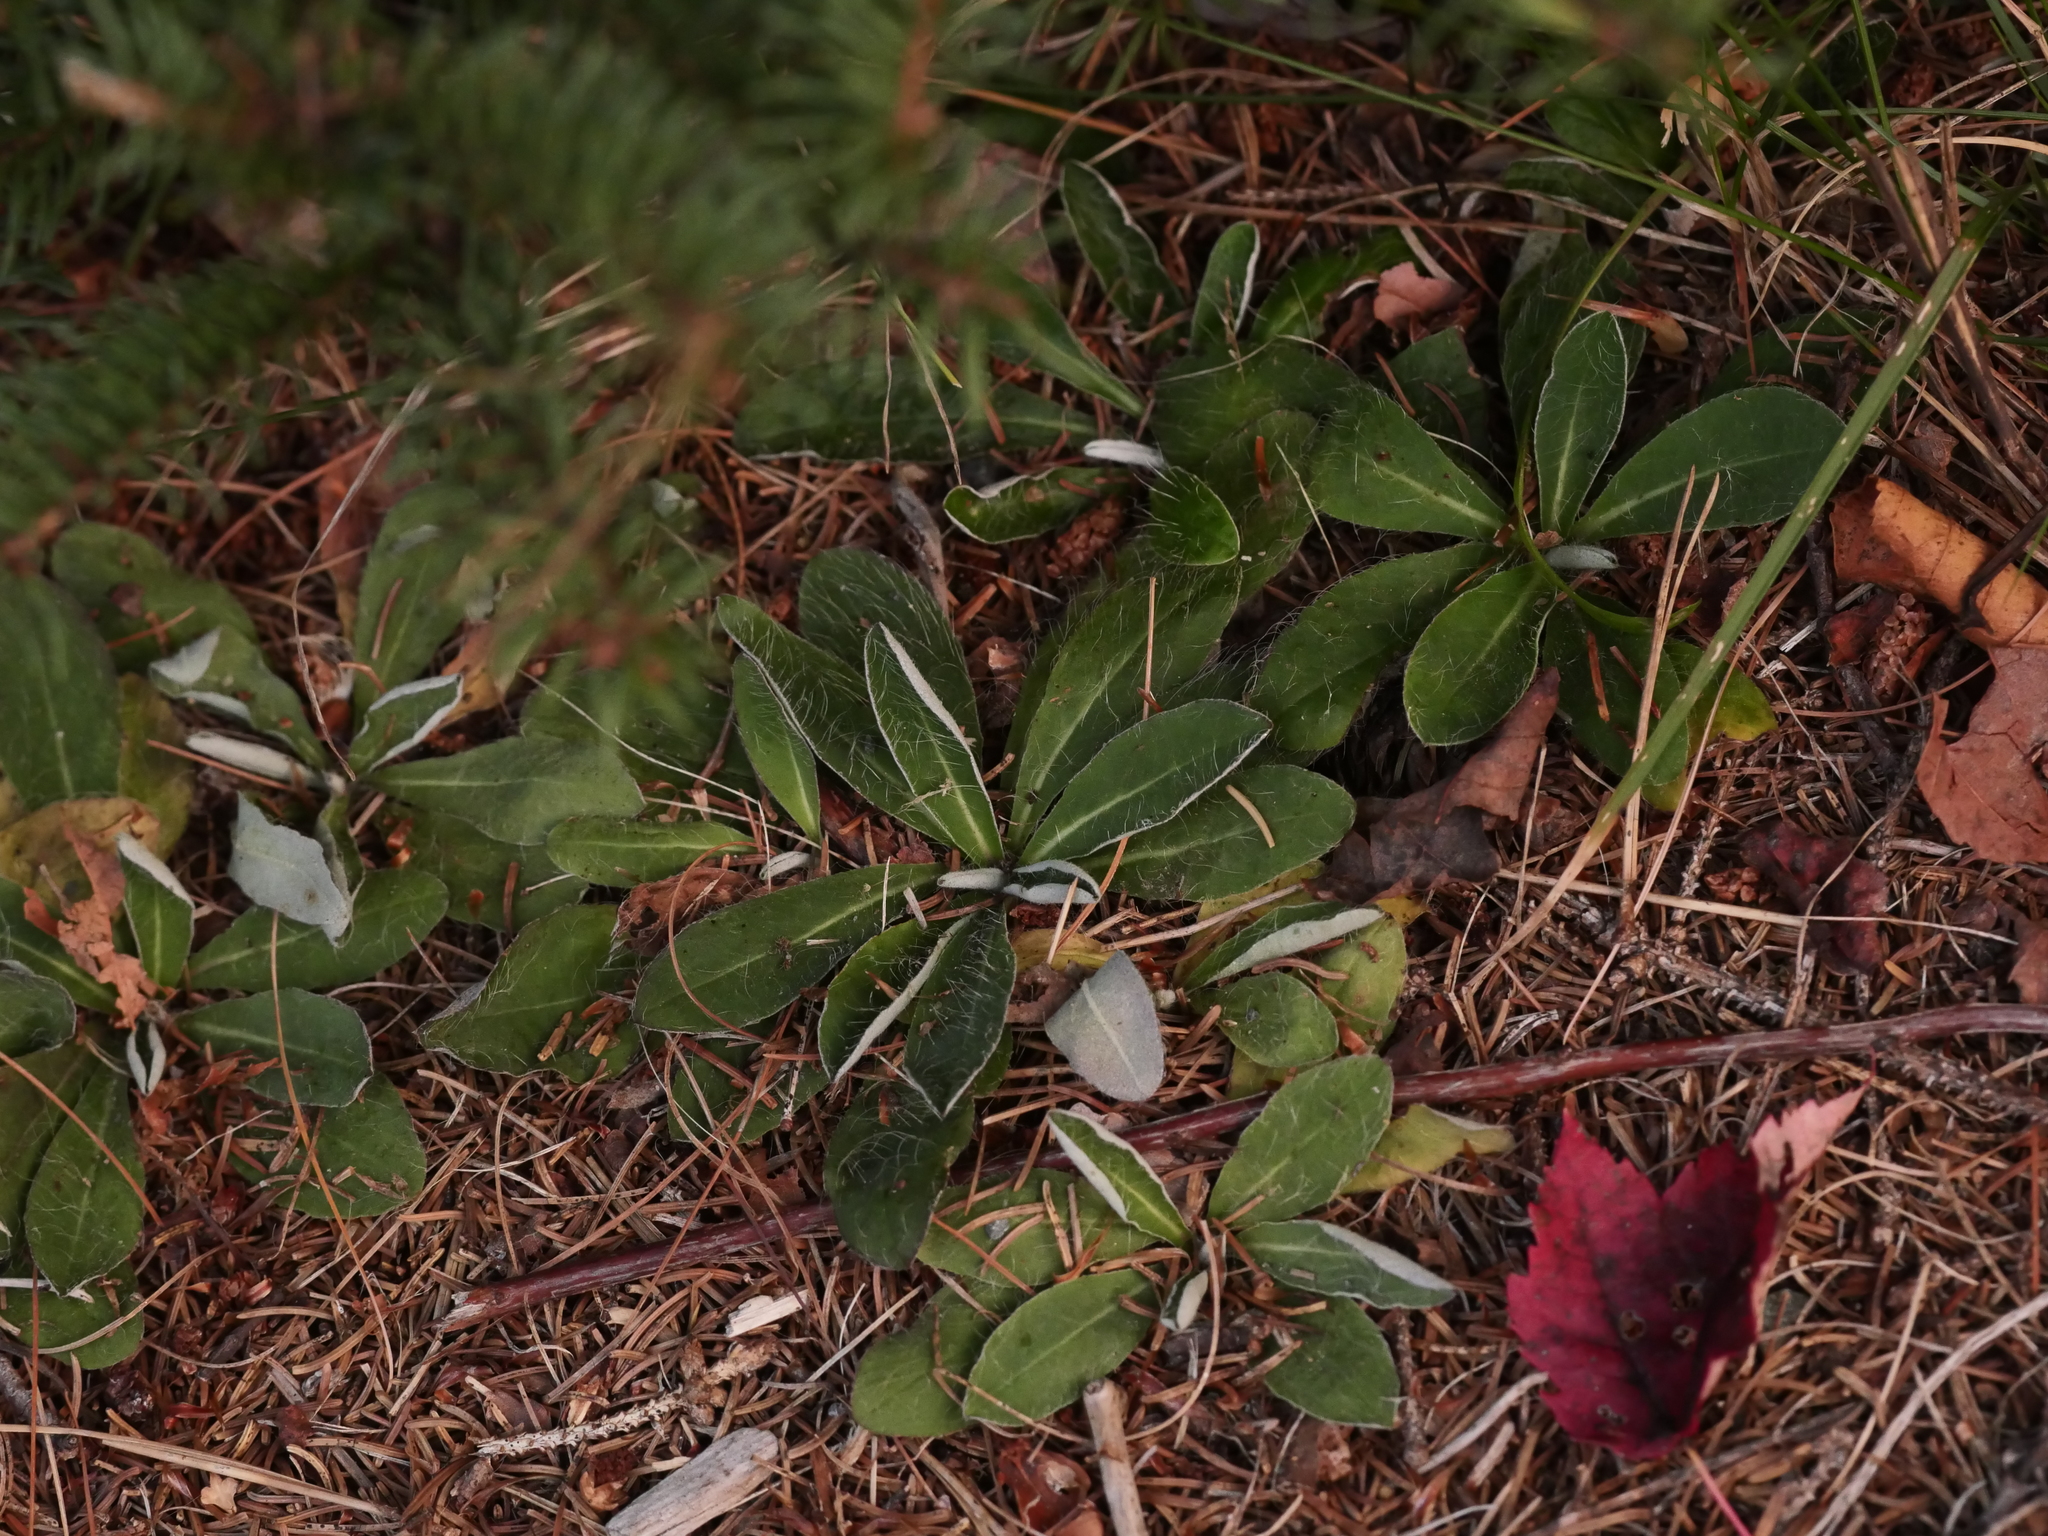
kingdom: Plantae
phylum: Tracheophyta
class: Magnoliopsida
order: Asterales
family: Asteraceae
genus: Pilosella
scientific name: Pilosella officinarum
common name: Mouse-ear hawkweed
